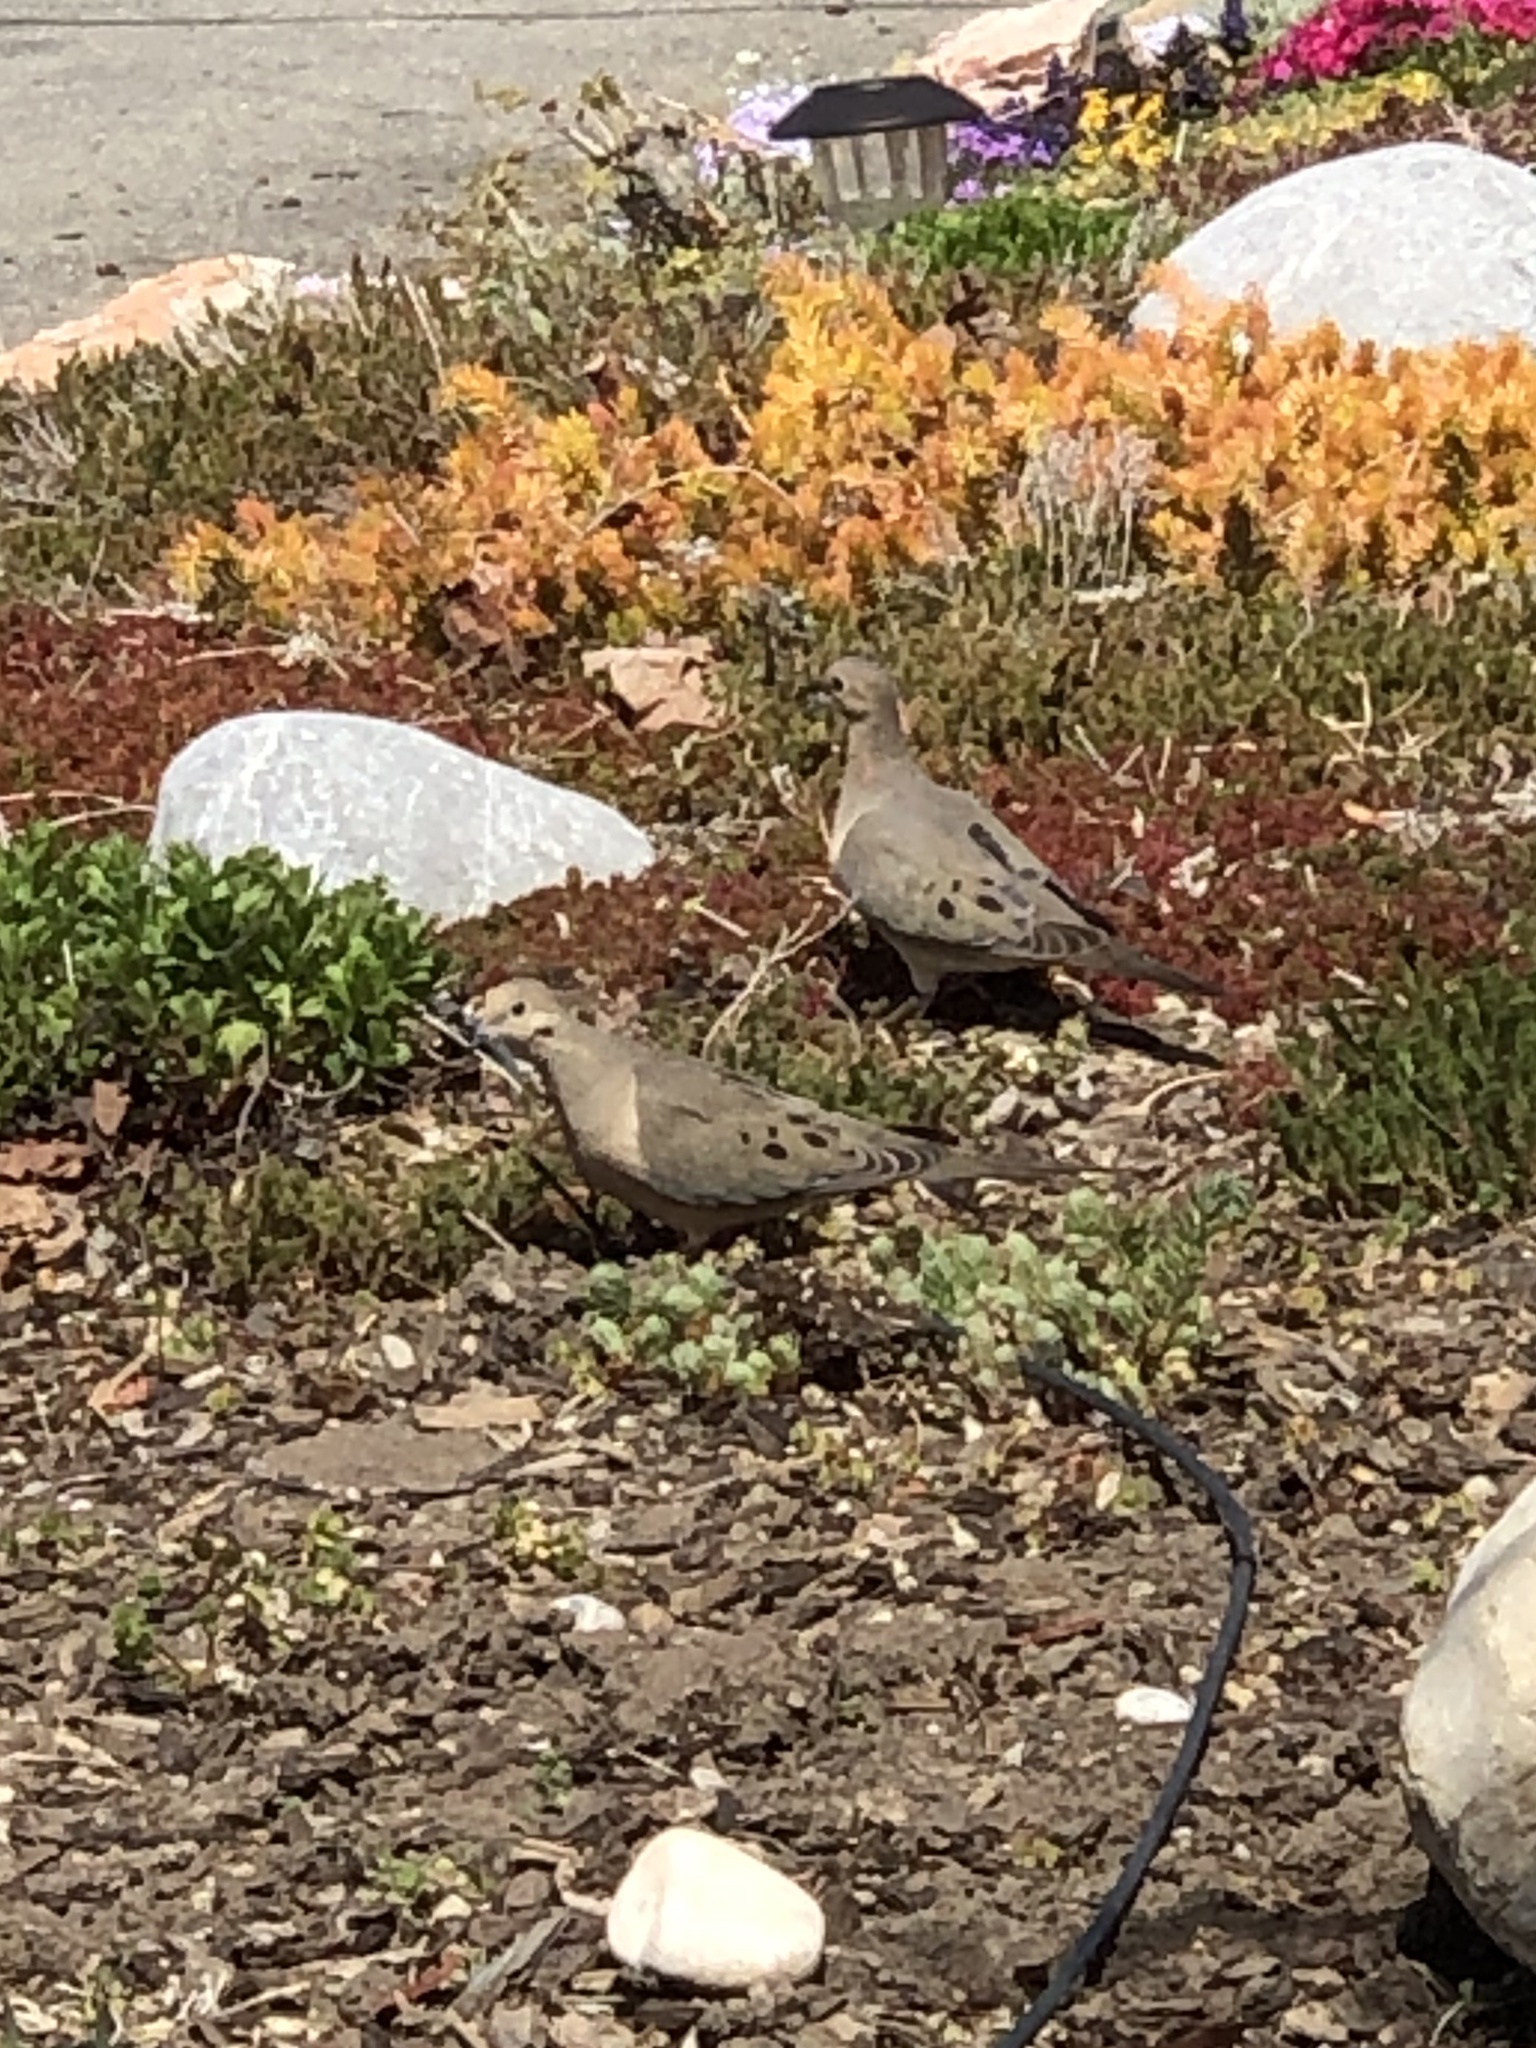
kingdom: Animalia
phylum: Chordata
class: Aves
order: Columbiformes
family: Columbidae
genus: Zenaida
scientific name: Zenaida macroura
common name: Mourning dove
